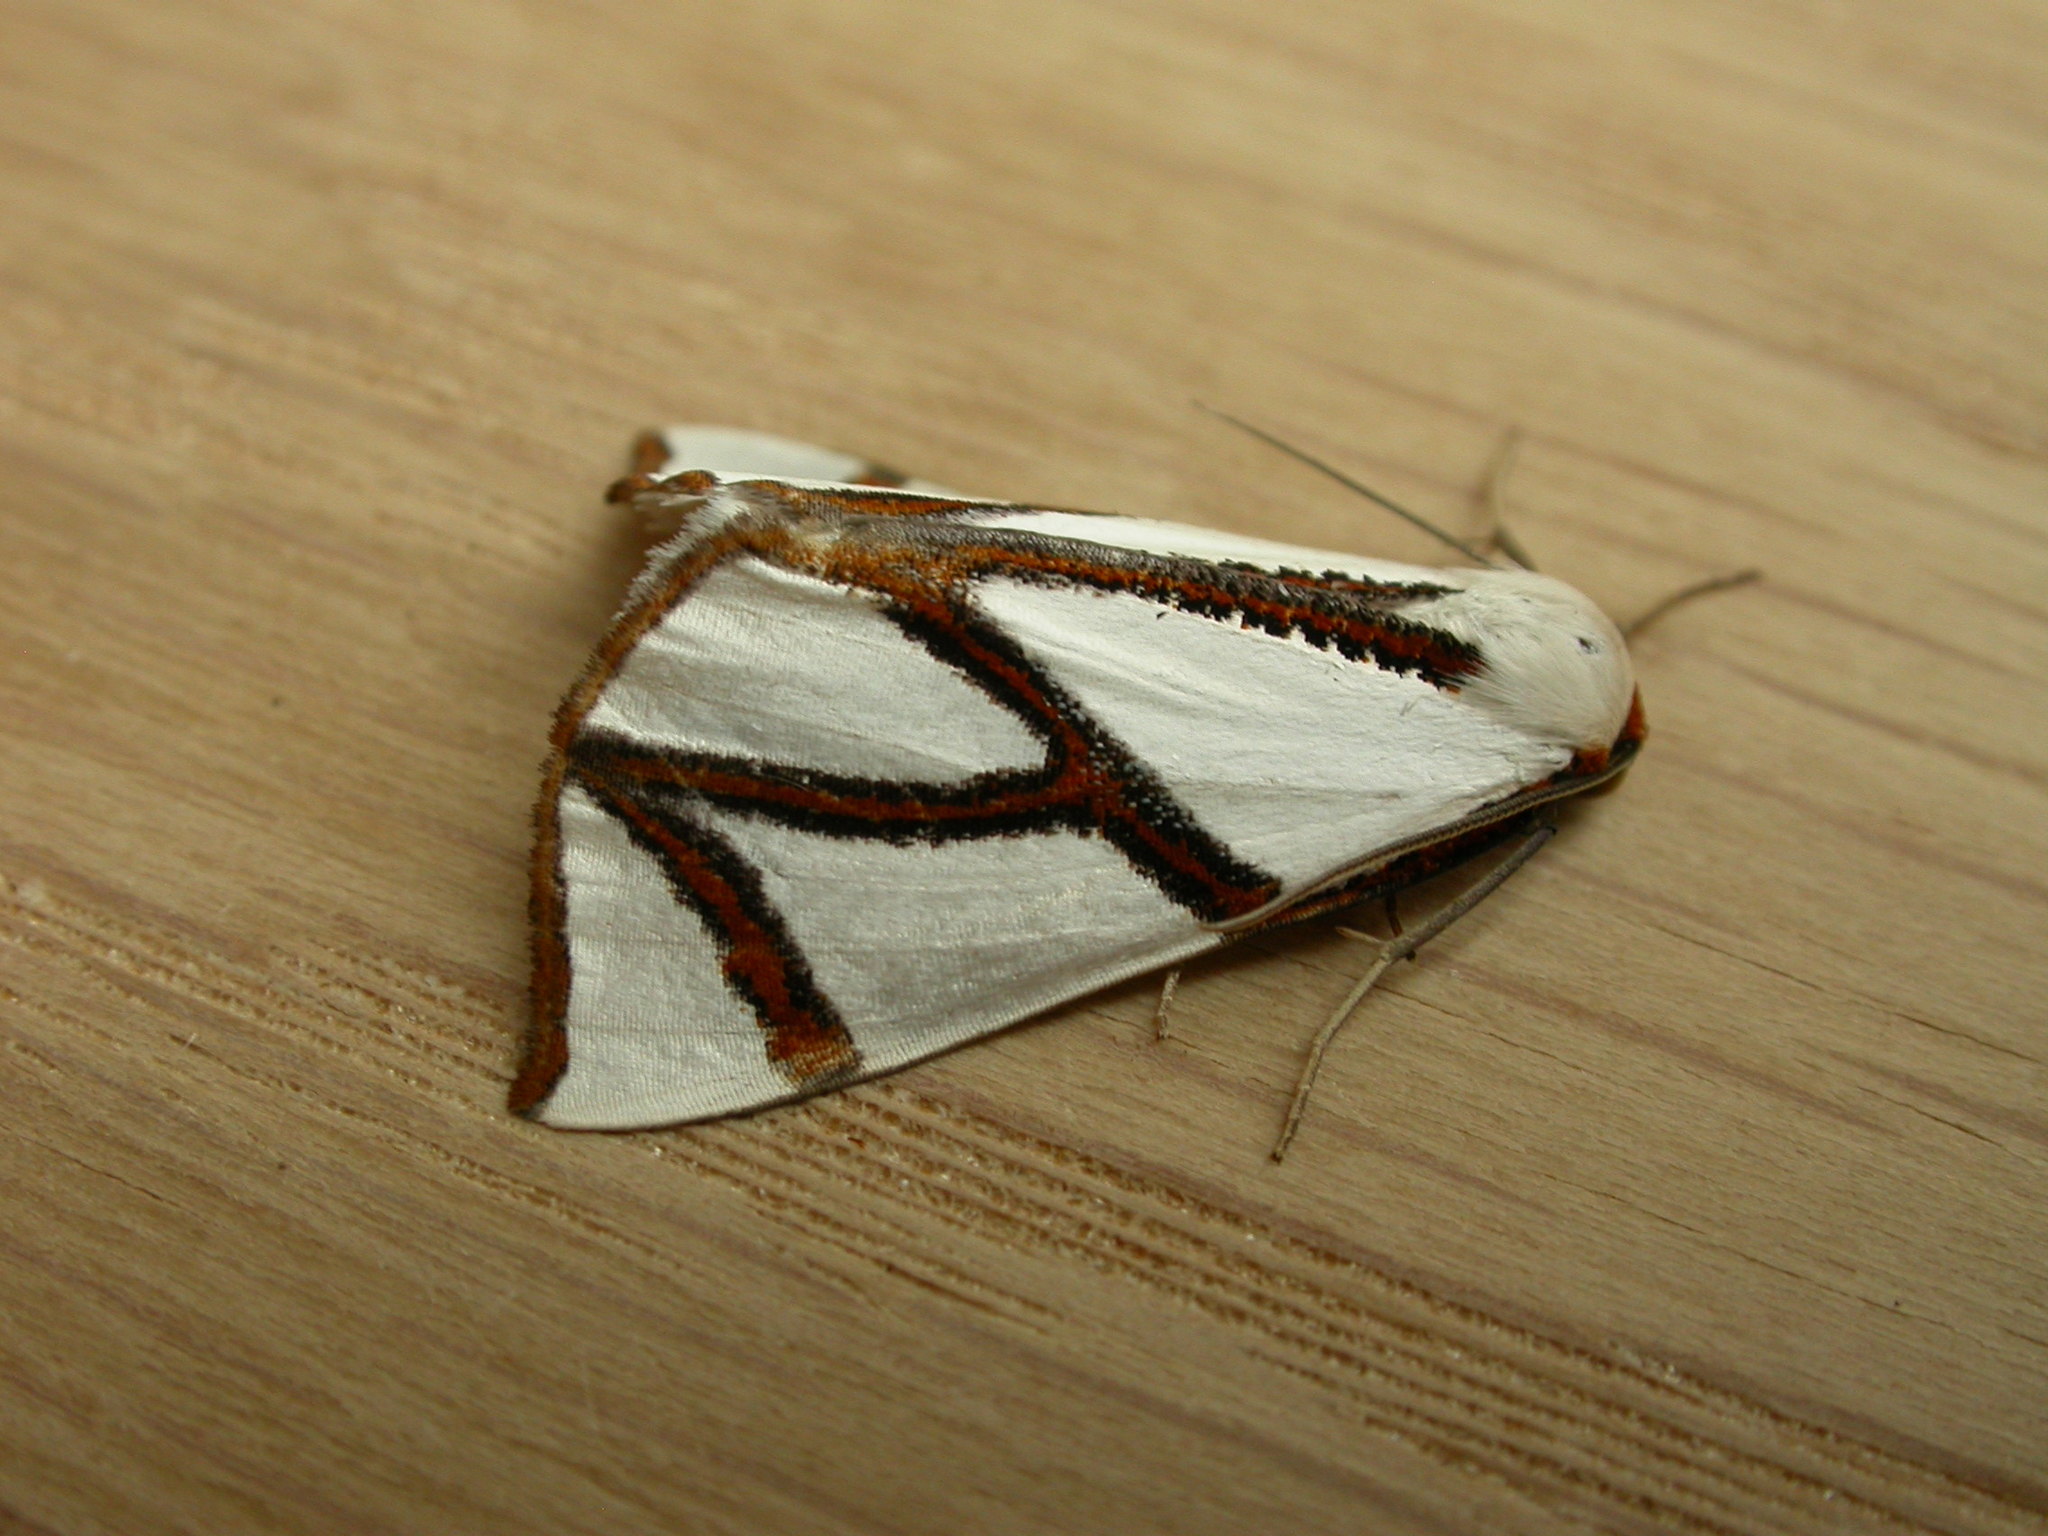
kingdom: Animalia
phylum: Arthropoda
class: Insecta
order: Lepidoptera
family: Geometridae
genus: Thalaina
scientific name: Thalaina clara
